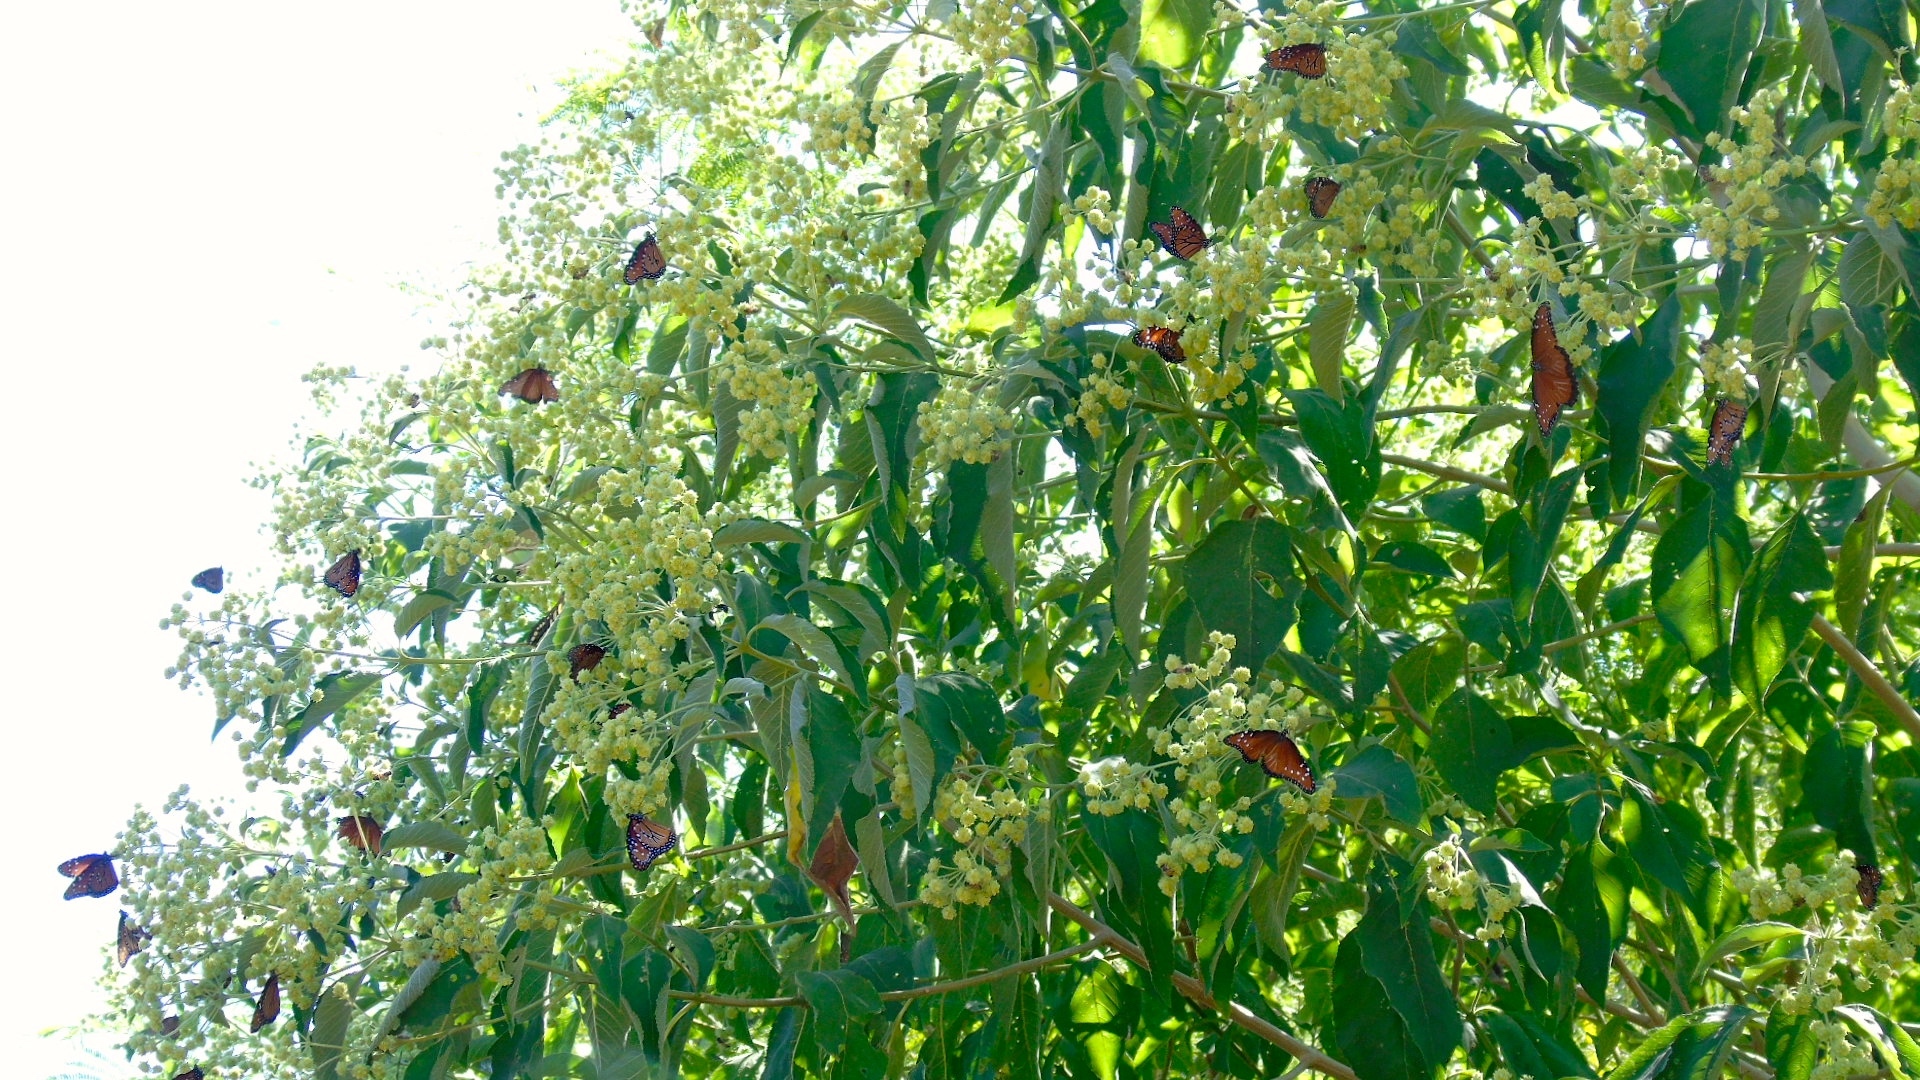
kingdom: Plantae
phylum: Tracheophyta
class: Magnoliopsida
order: Lamiales
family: Verbenaceae
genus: Lippia
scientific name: Lippia umbellata
